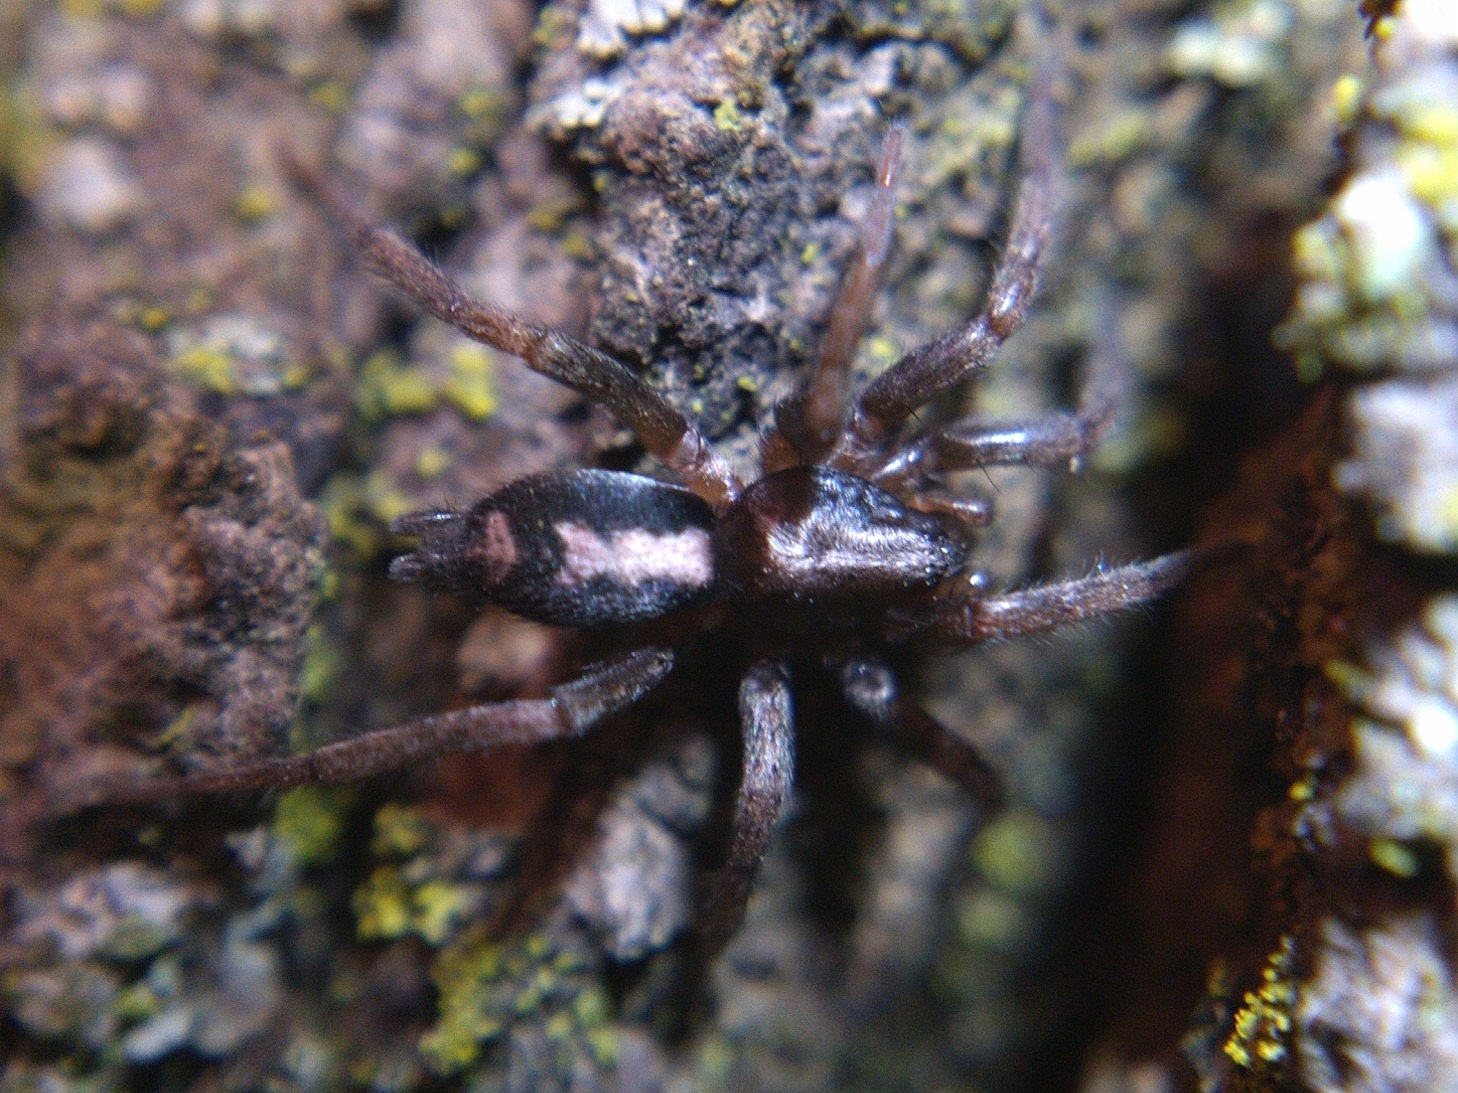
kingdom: Animalia
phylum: Arthropoda
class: Arachnida
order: Araneae
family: Gnaphosidae
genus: Herpyllus
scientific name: Herpyllus ecclesiasticus
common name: Eastern parson spider
